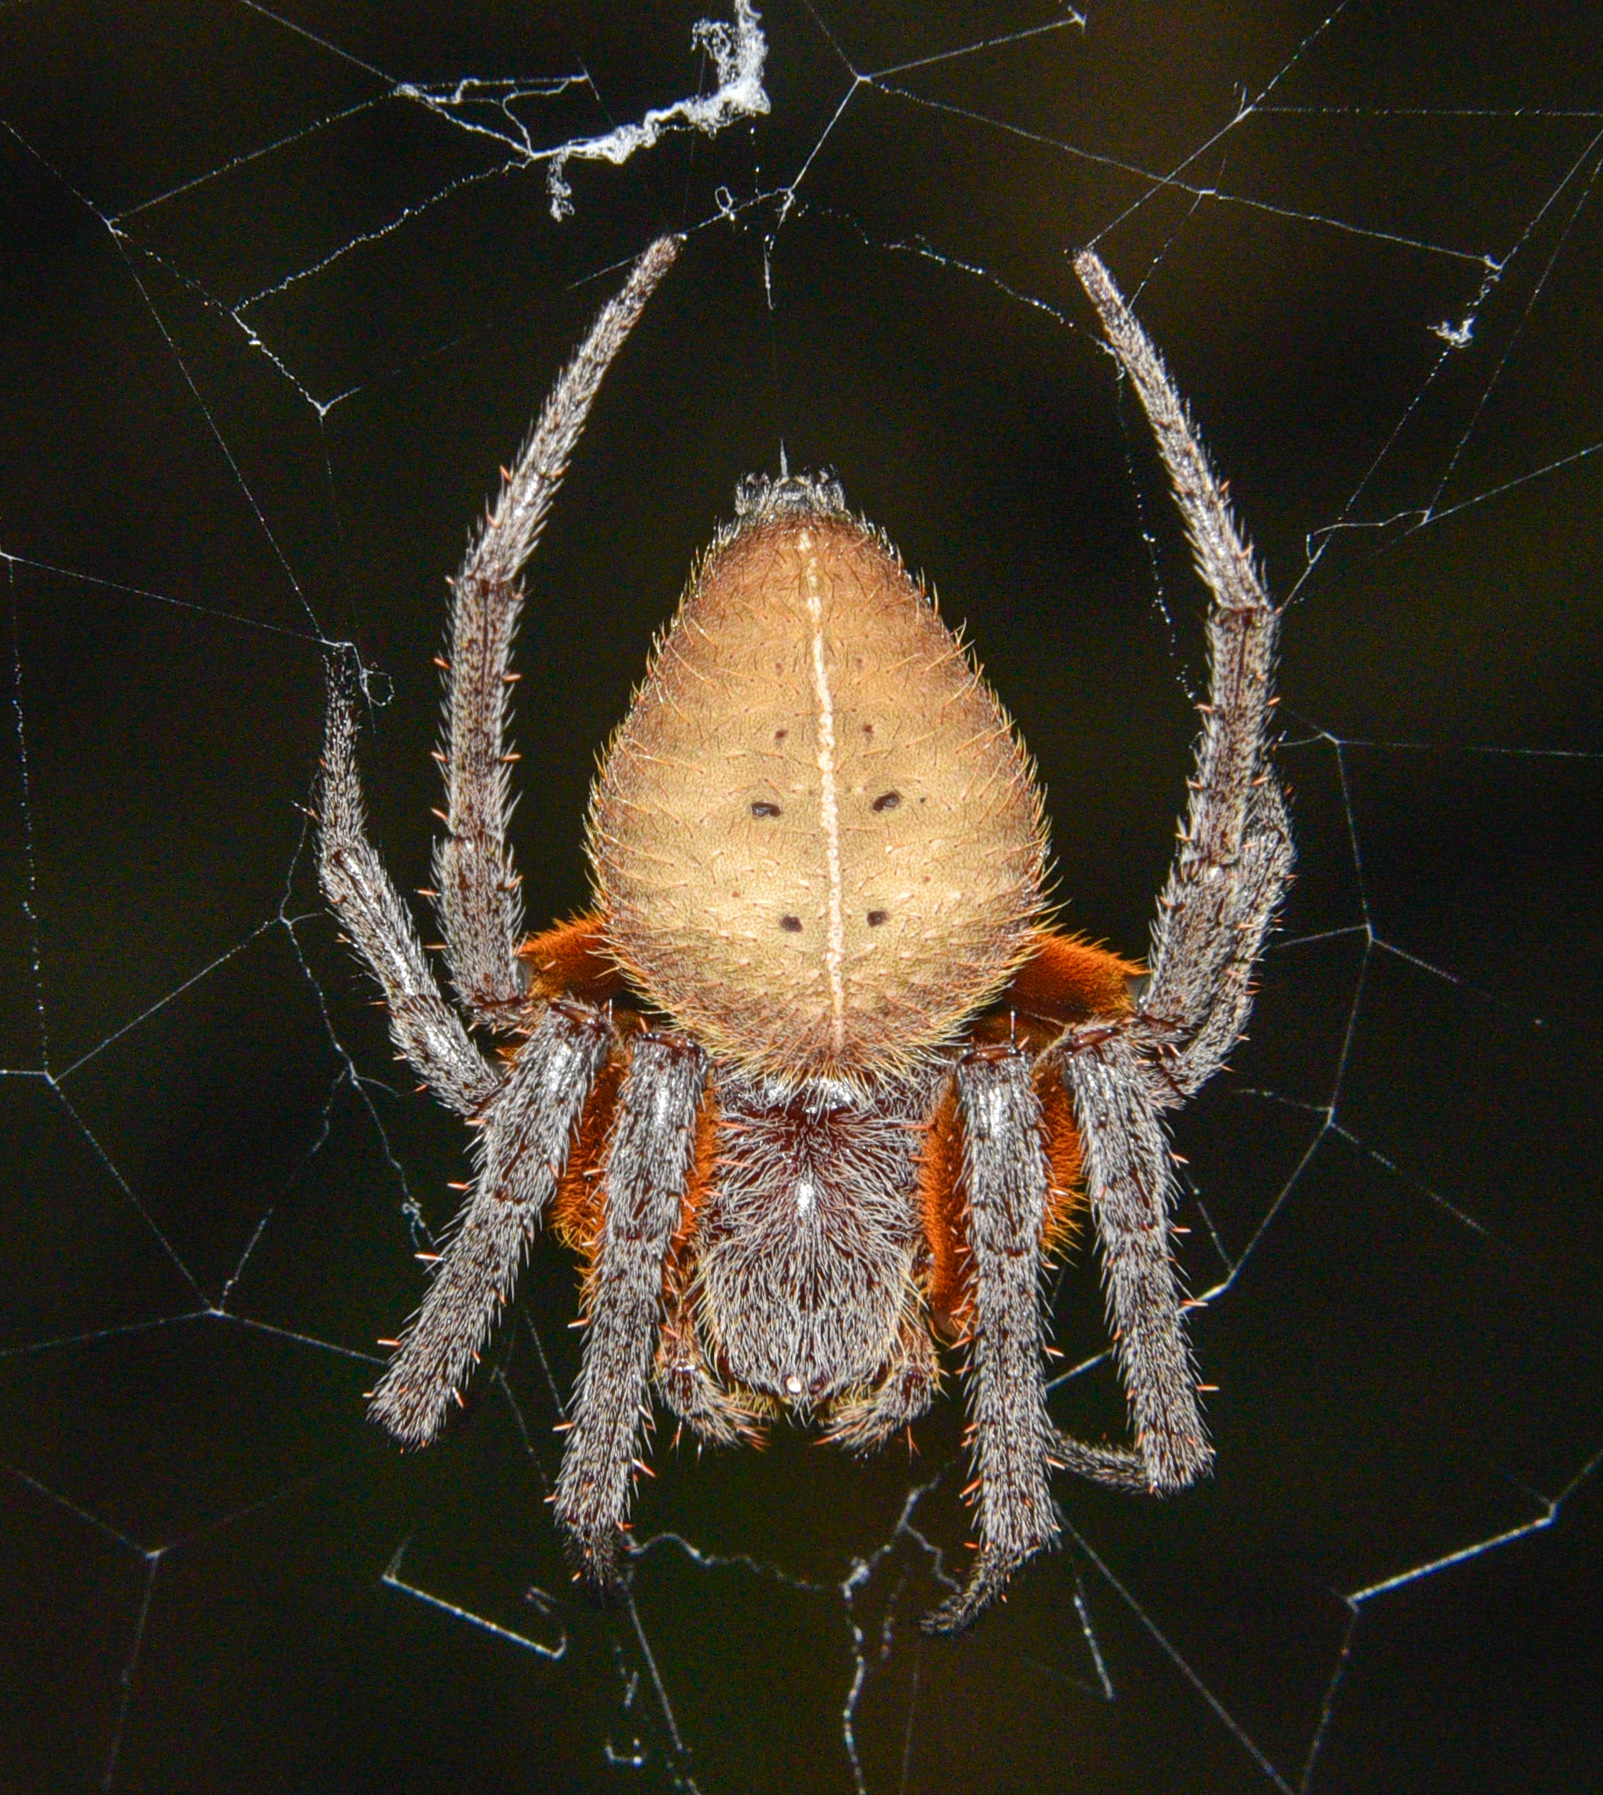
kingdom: Animalia
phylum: Arthropoda
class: Arachnida
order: Araneae
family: Araneidae
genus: Eriophora
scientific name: Eriophora fuliginea
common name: Orb weavers
